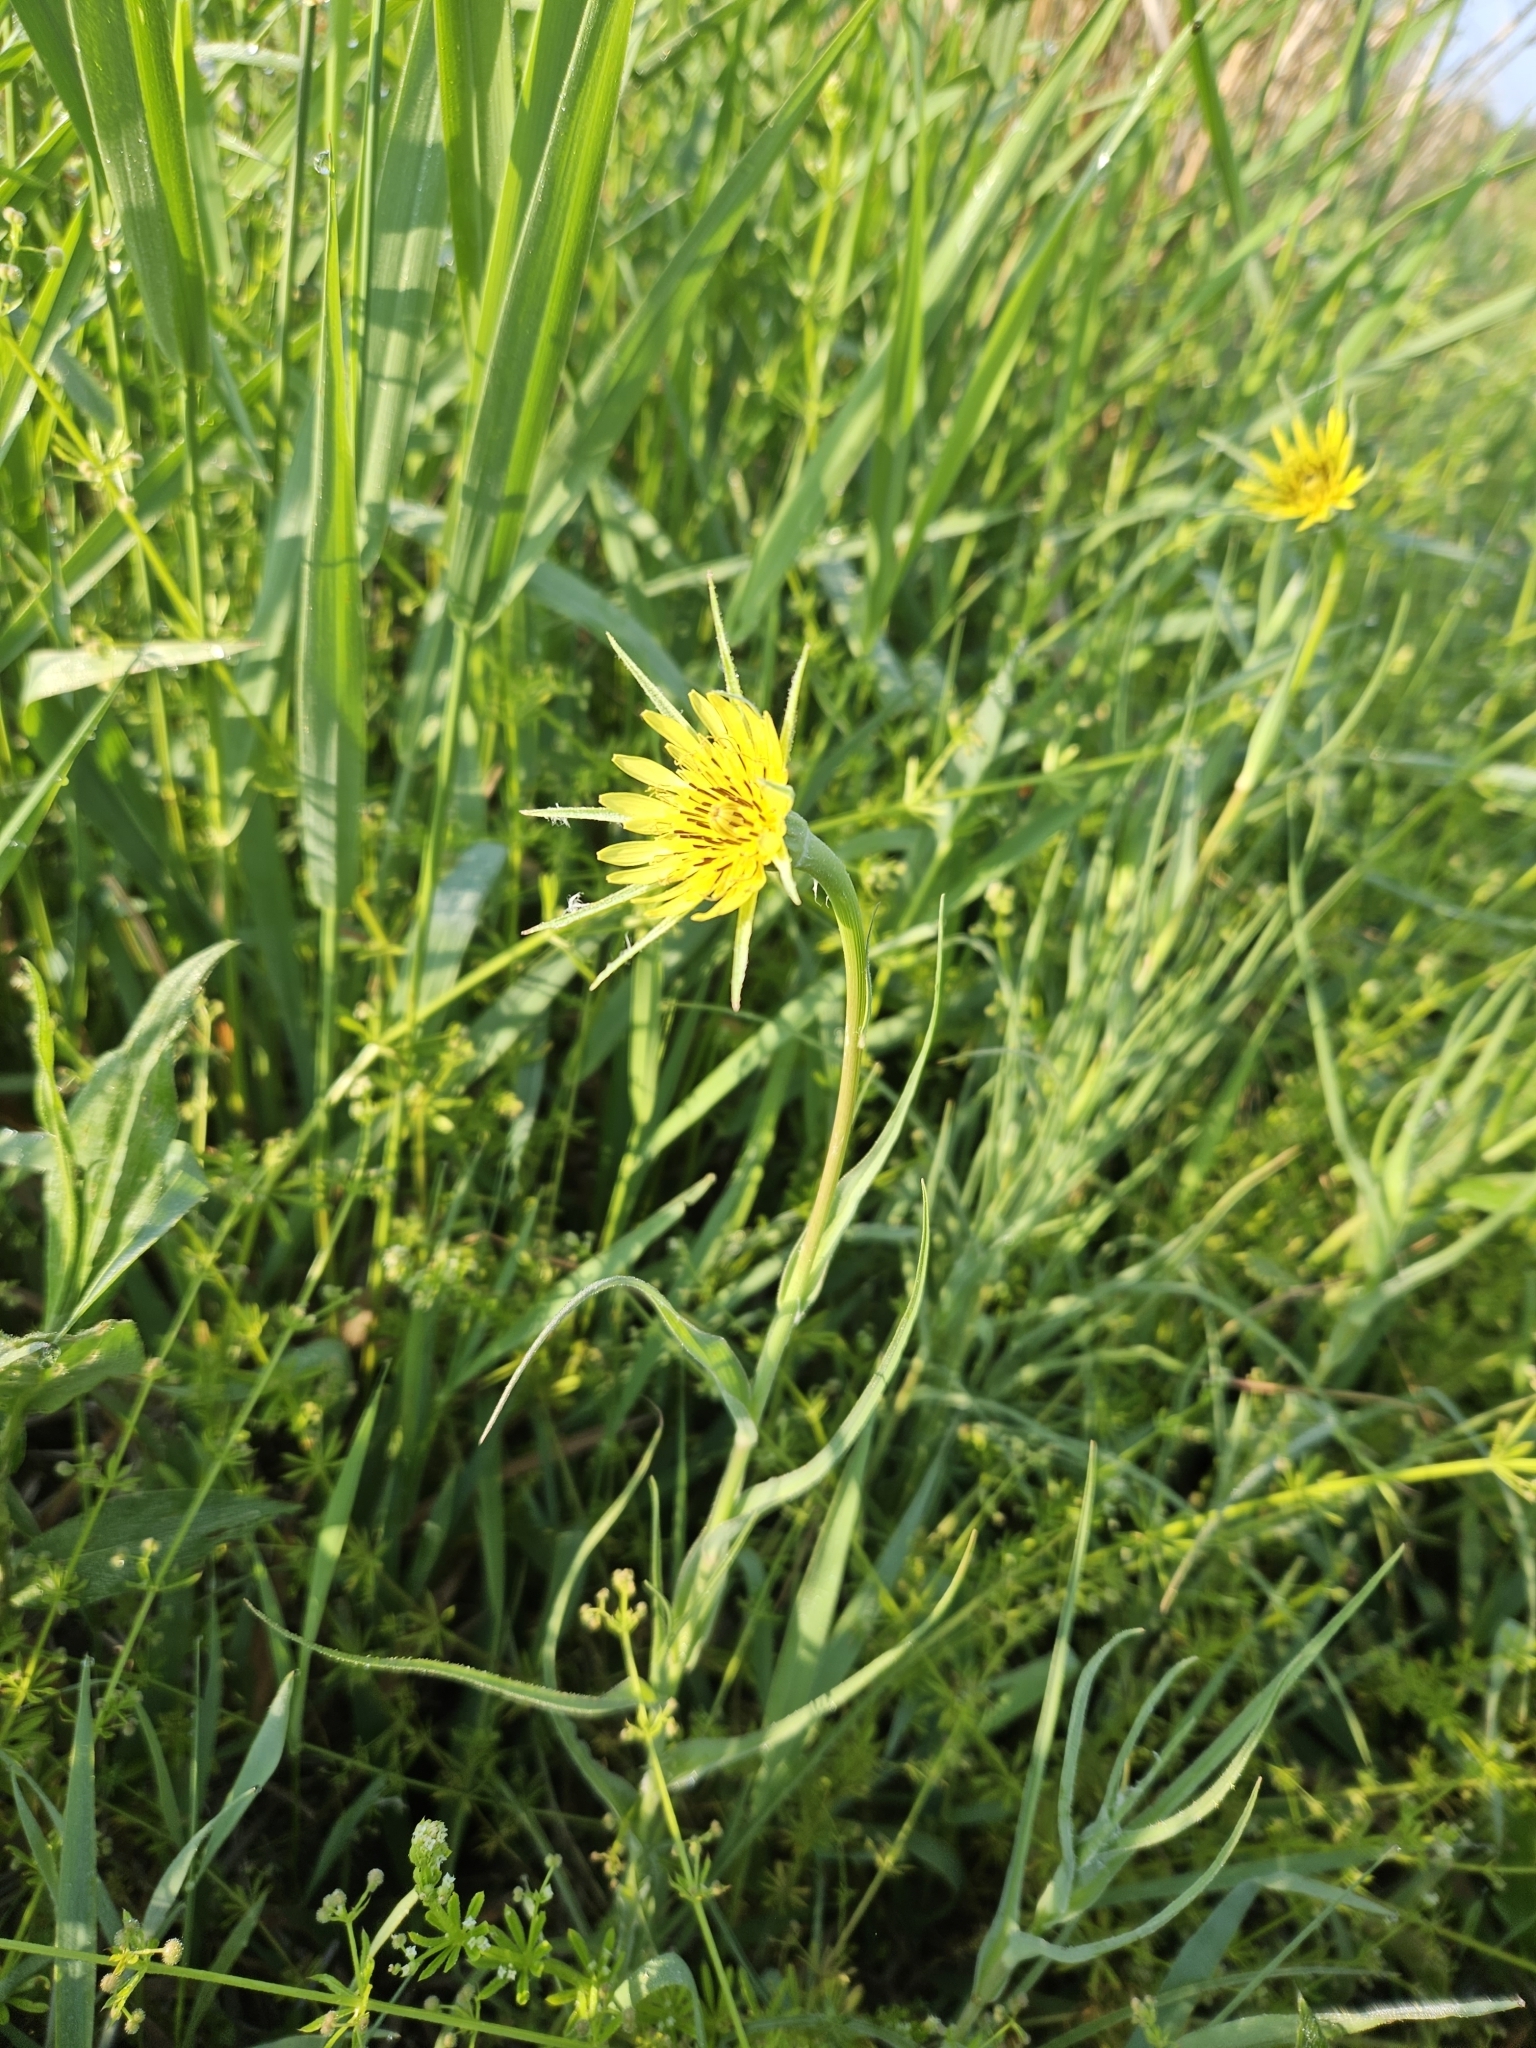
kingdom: Plantae
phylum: Tracheophyta
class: Magnoliopsida
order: Asterales
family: Asteraceae
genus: Tragopogon
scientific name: Tragopogon dubius
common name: Yellow salsify
